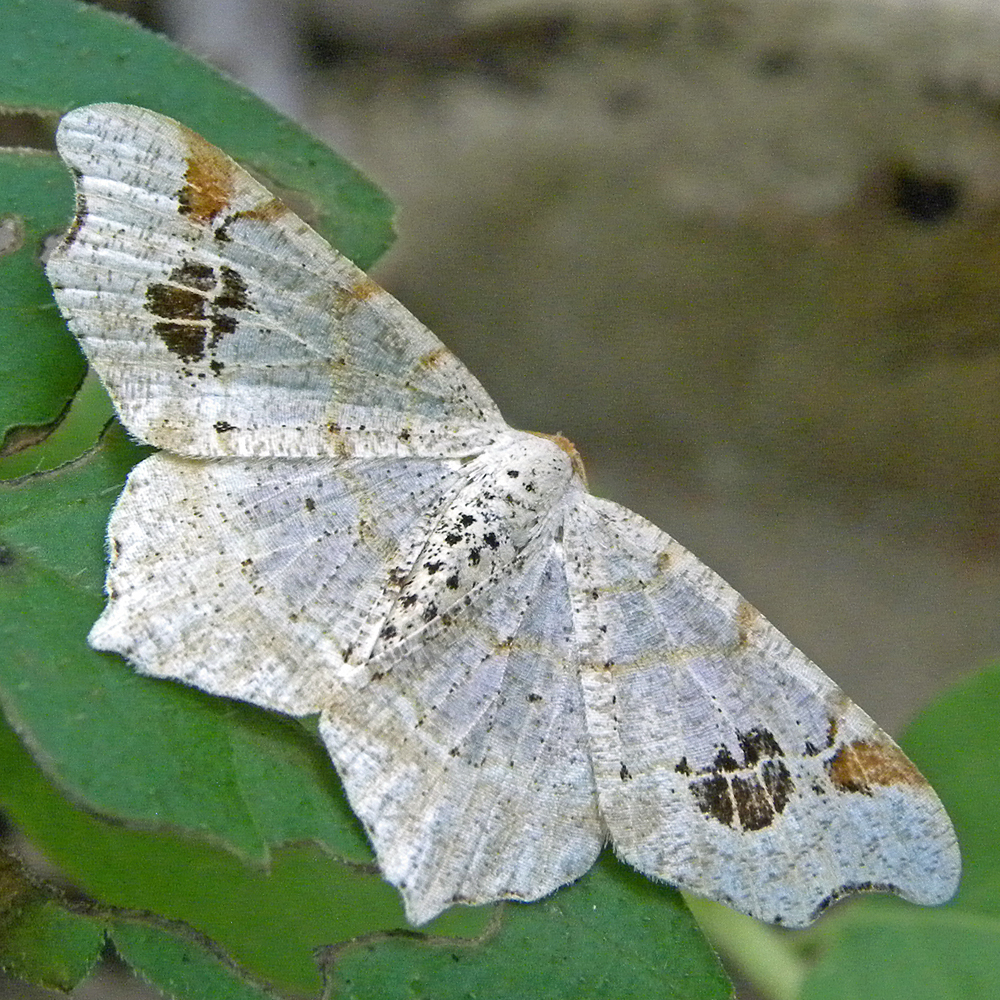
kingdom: Animalia
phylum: Arthropoda
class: Insecta
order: Lepidoptera
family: Geometridae
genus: Macaria
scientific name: Macaria aemulataria
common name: Common angle
